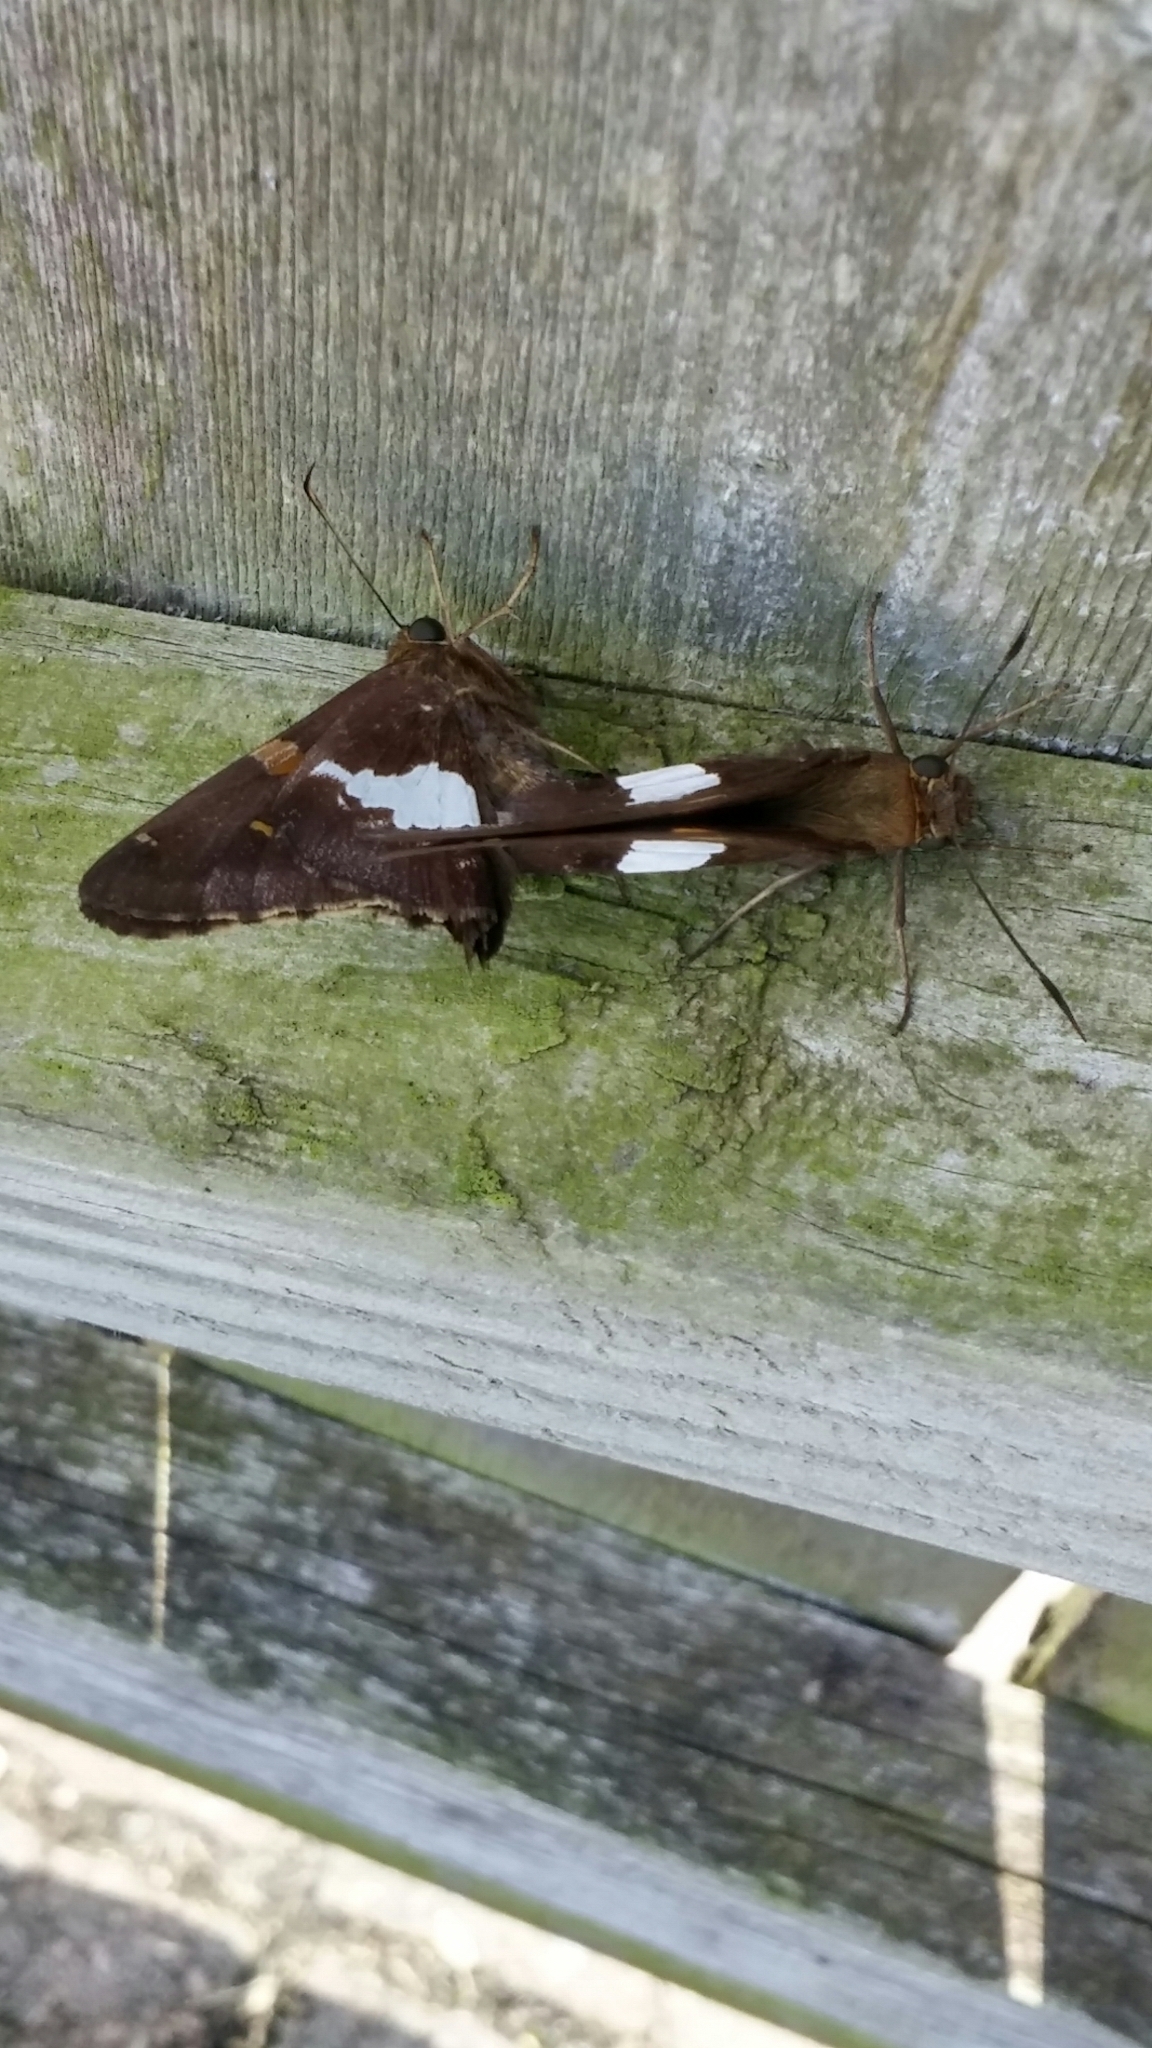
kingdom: Animalia
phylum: Arthropoda
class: Insecta
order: Lepidoptera
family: Hesperiidae
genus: Epargyreus
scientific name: Epargyreus clarus
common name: Silver-spotted skipper
